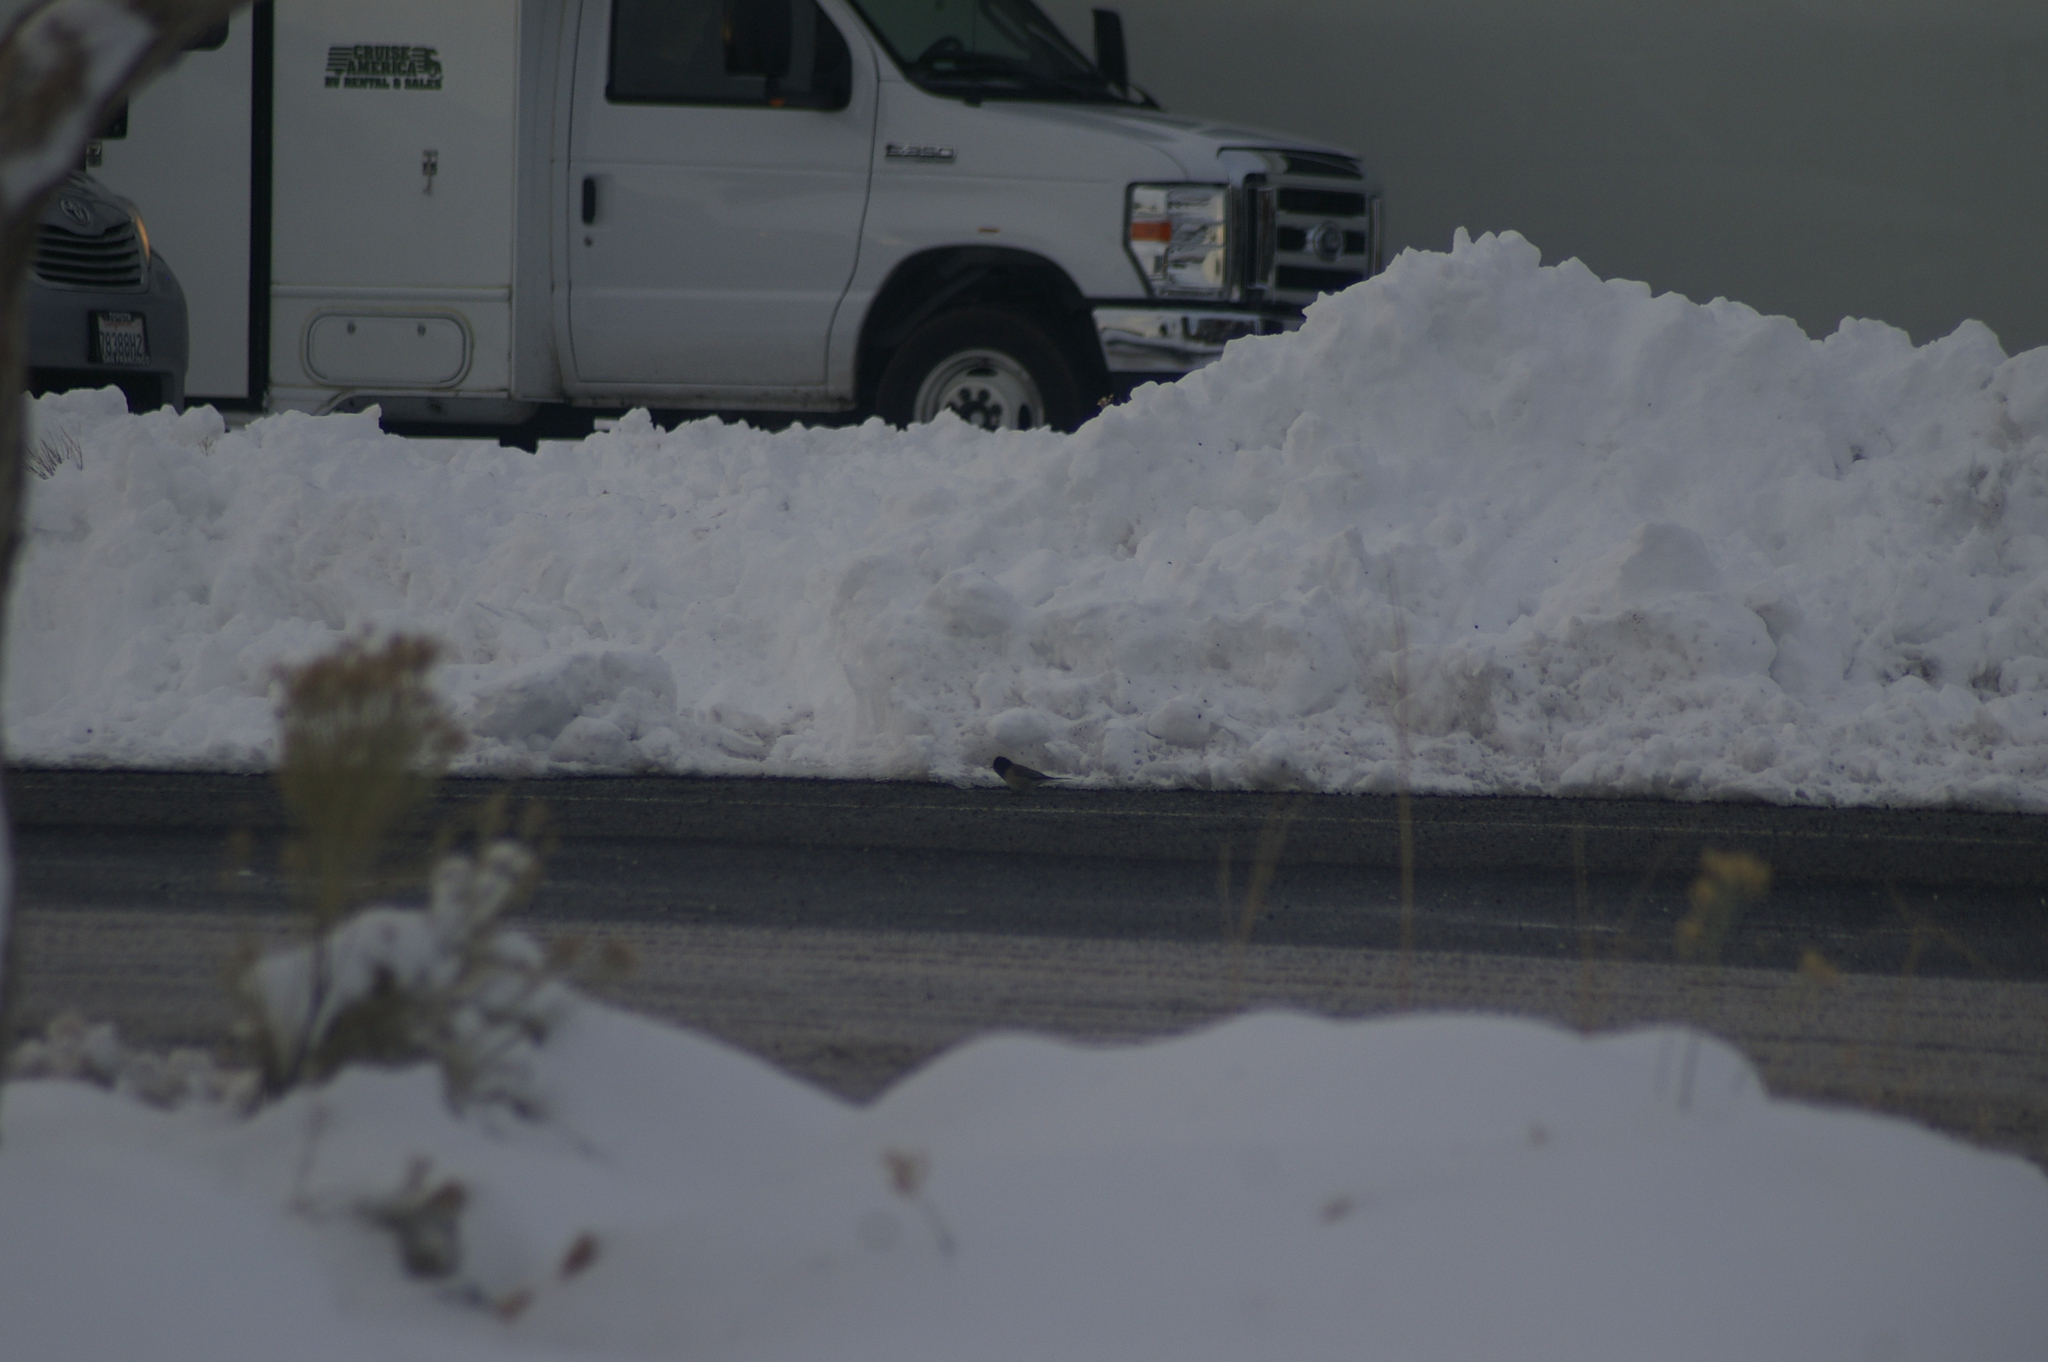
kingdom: Animalia
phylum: Chordata
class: Aves
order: Passeriformes
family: Passerellidae
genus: Junco
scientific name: Junco hyemalis
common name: Dark-eyed junco
